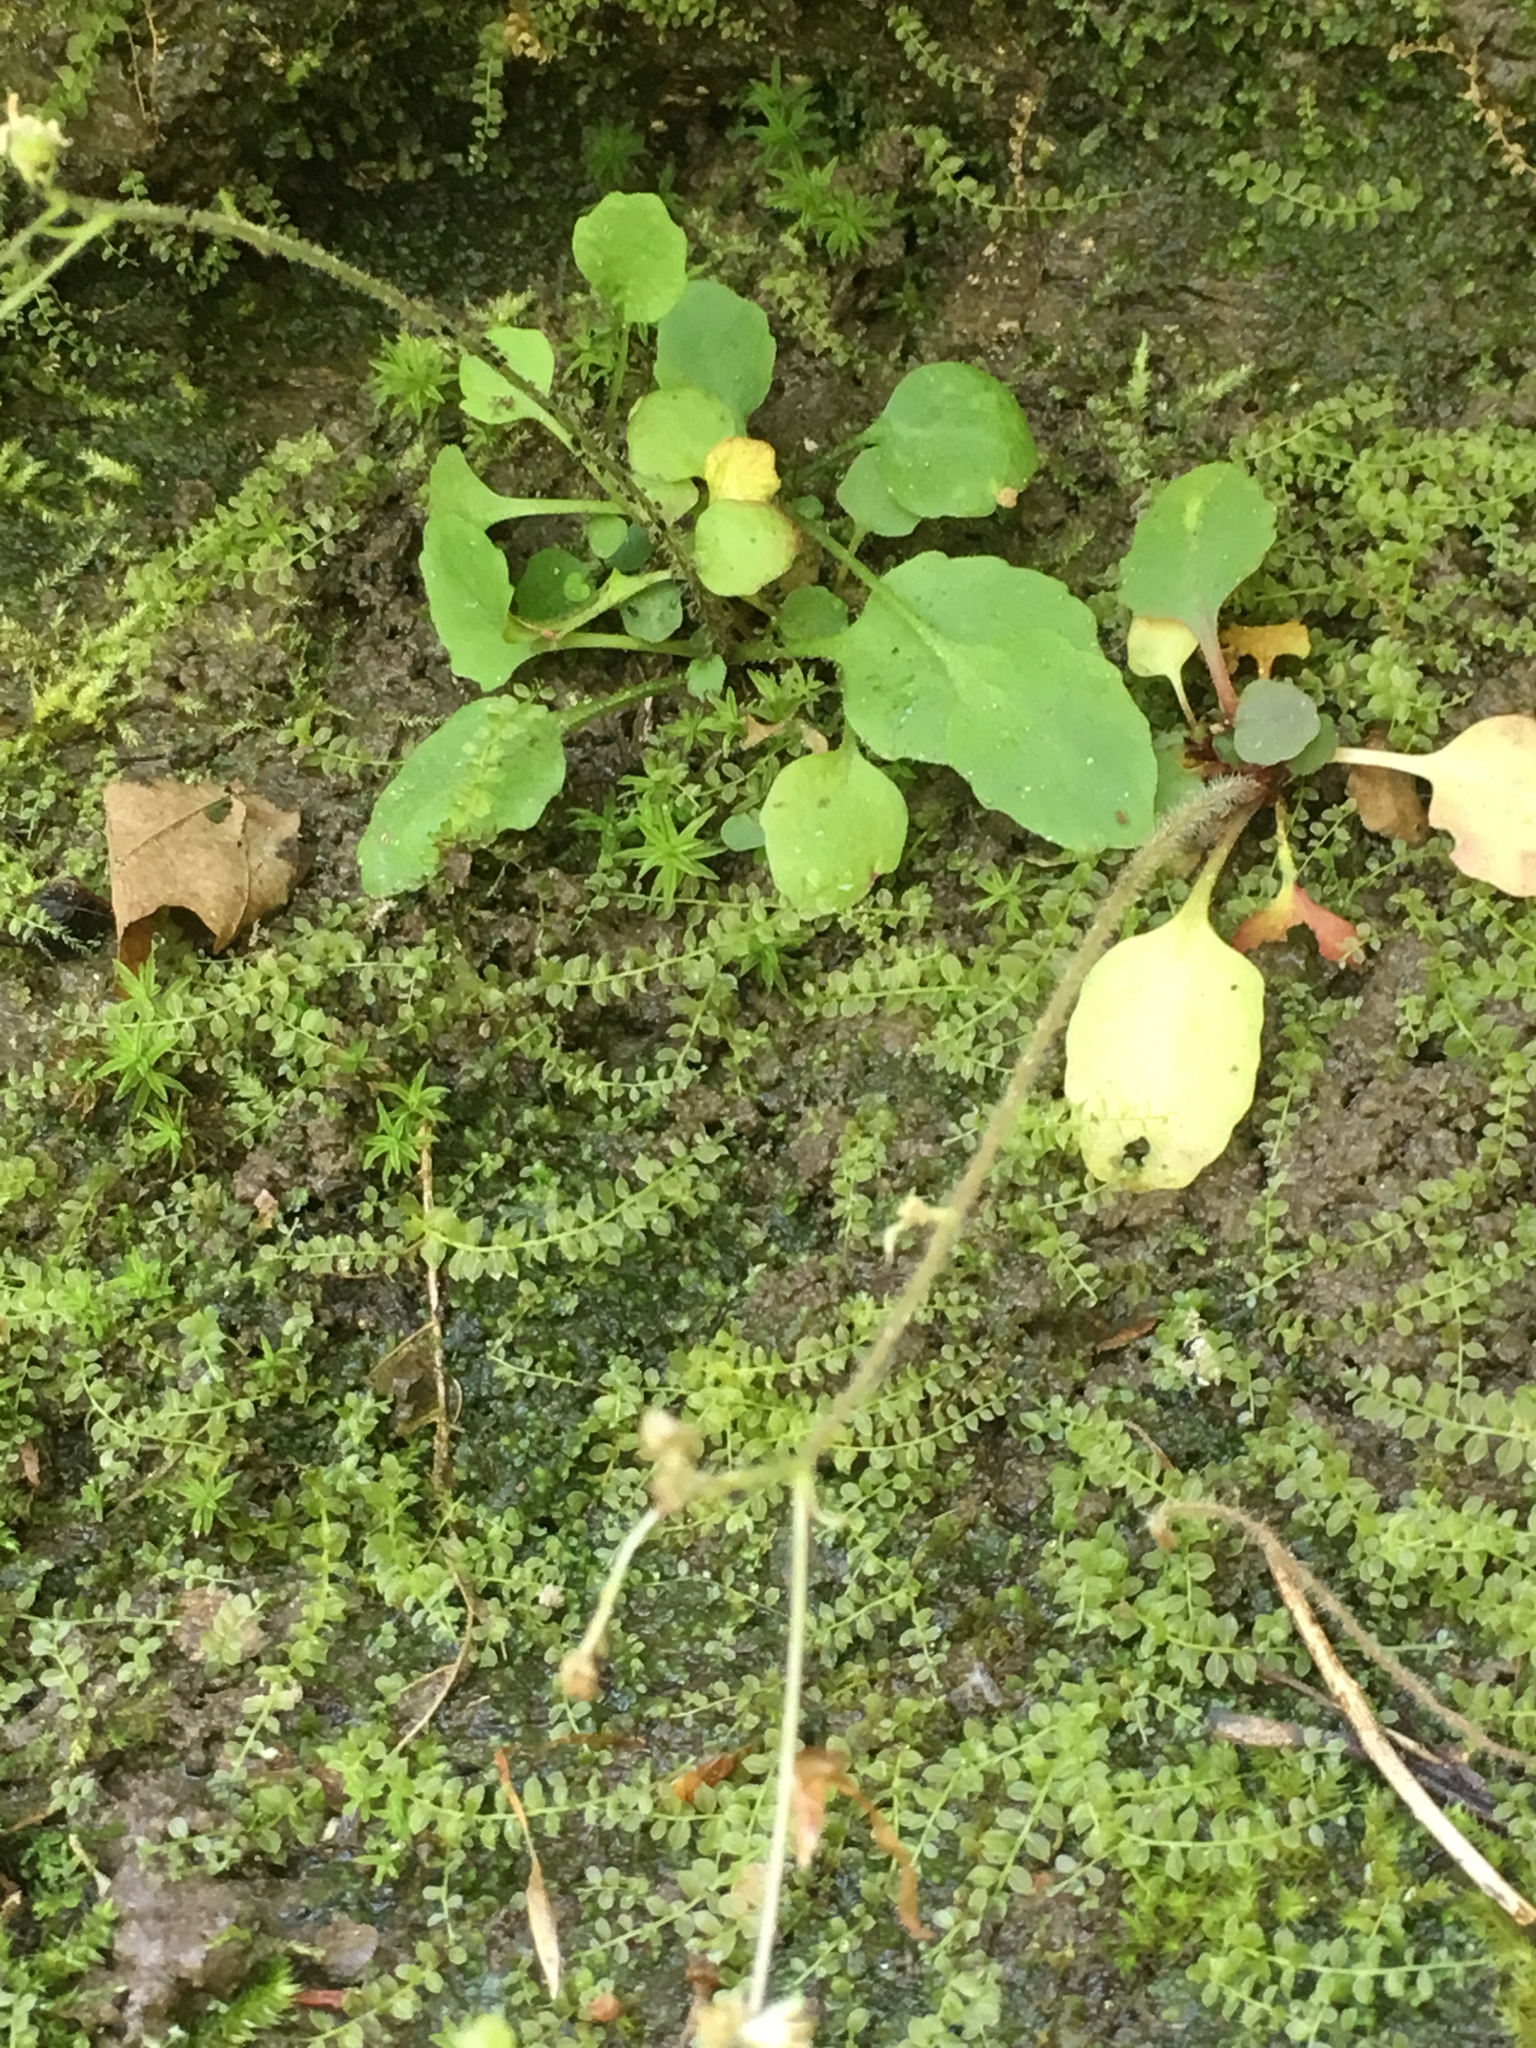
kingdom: Plantae
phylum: Tracheophyta
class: Magnoliopsida
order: Saxifragales
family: Saxifragaceae
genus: Micranthes
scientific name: Micranthes virginiensis
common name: Early saxifrage
